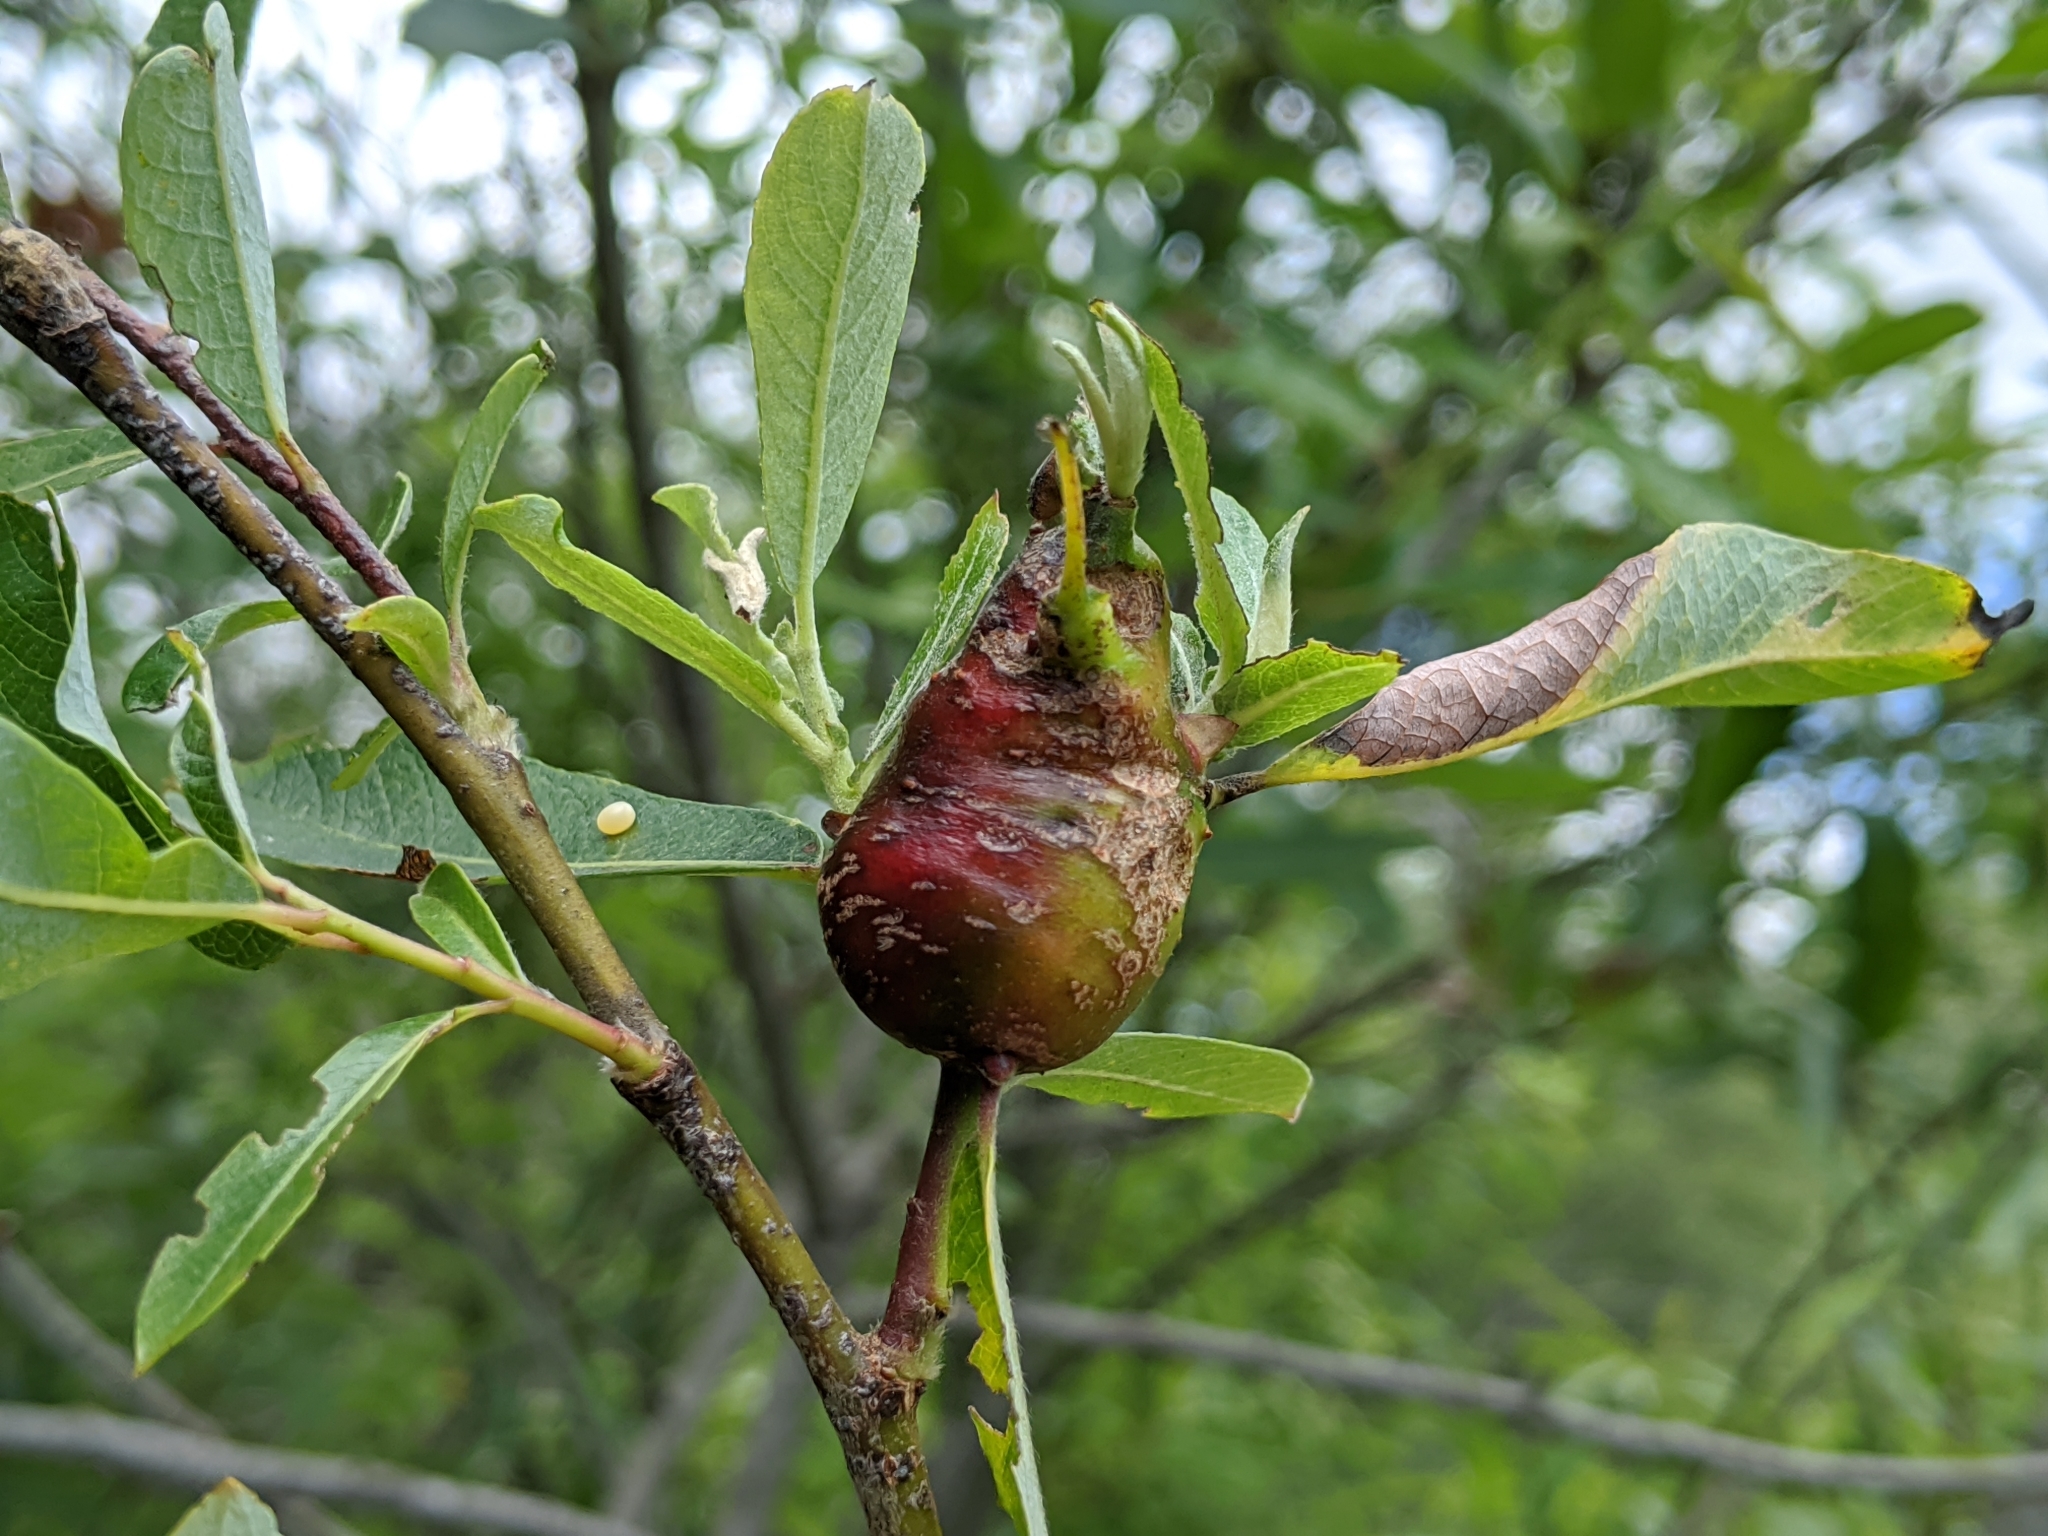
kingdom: Animalia
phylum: Arthropoda
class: Insecta
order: Diptera
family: Cecidomyiidae
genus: Rabdophaga
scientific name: Rabdophaga salicisbatatas
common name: Potato gall midge
